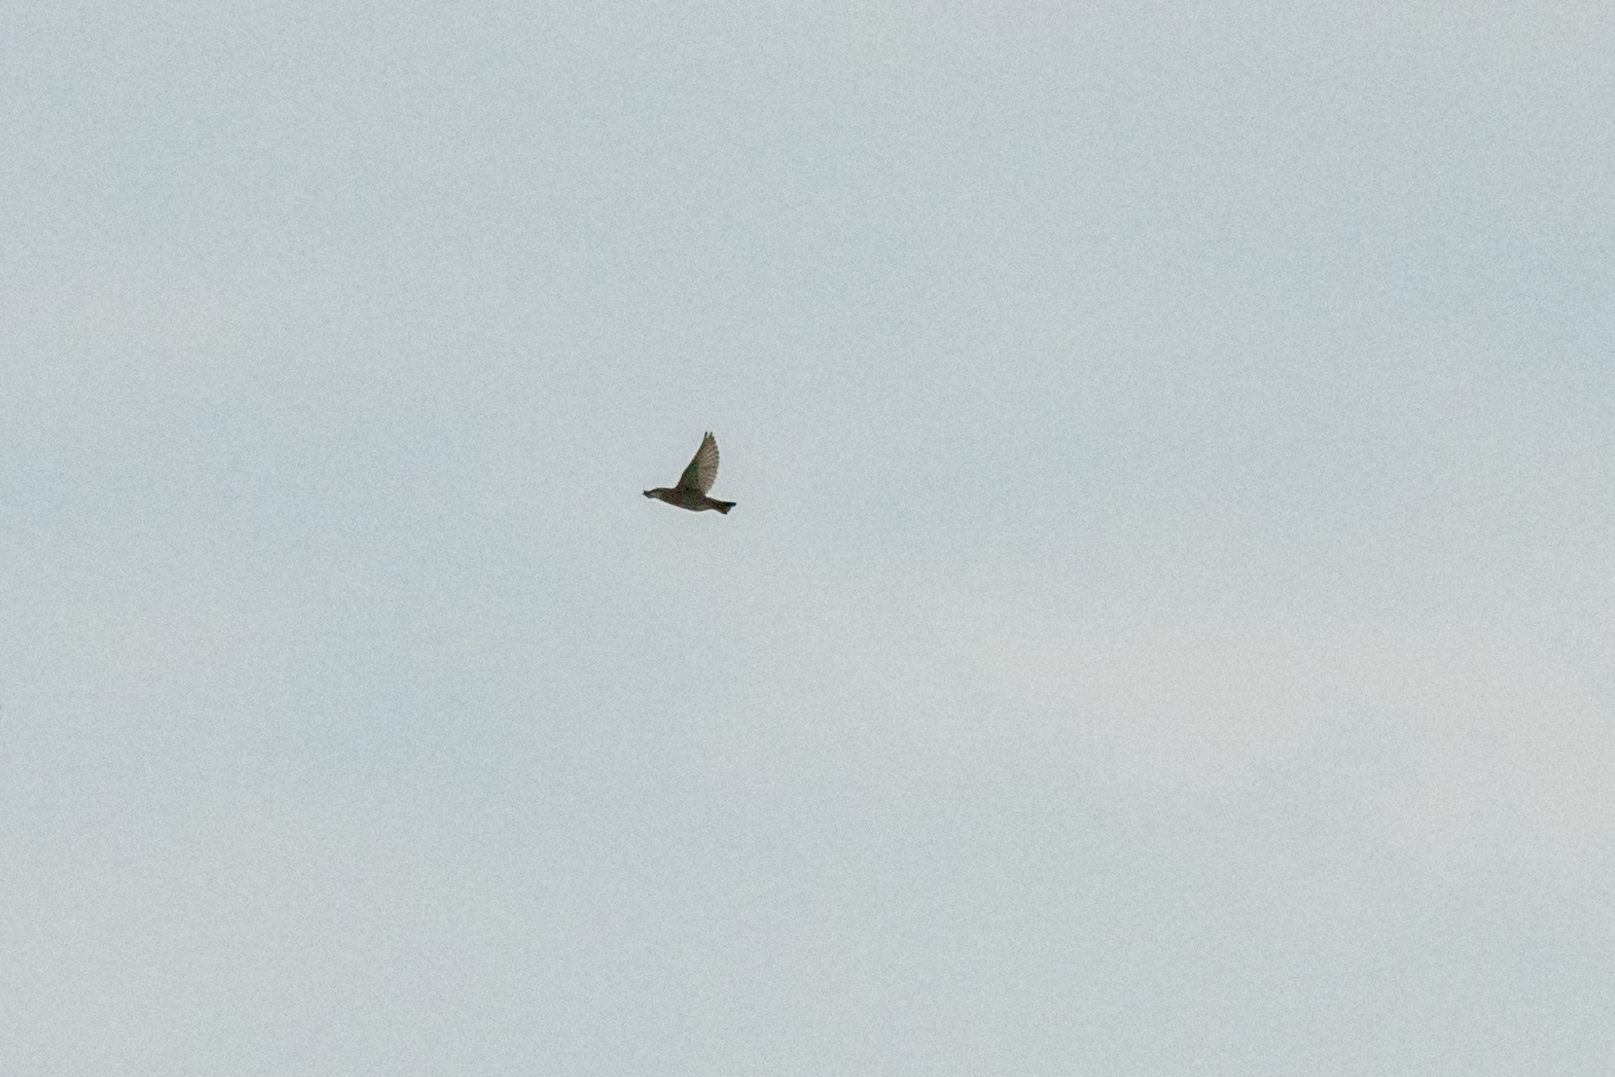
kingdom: Animalia
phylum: Chordata
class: Aves
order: Passeriformes
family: Sturnidae
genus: Sturnus
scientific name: Sturnus vulgaris
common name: Common starling
